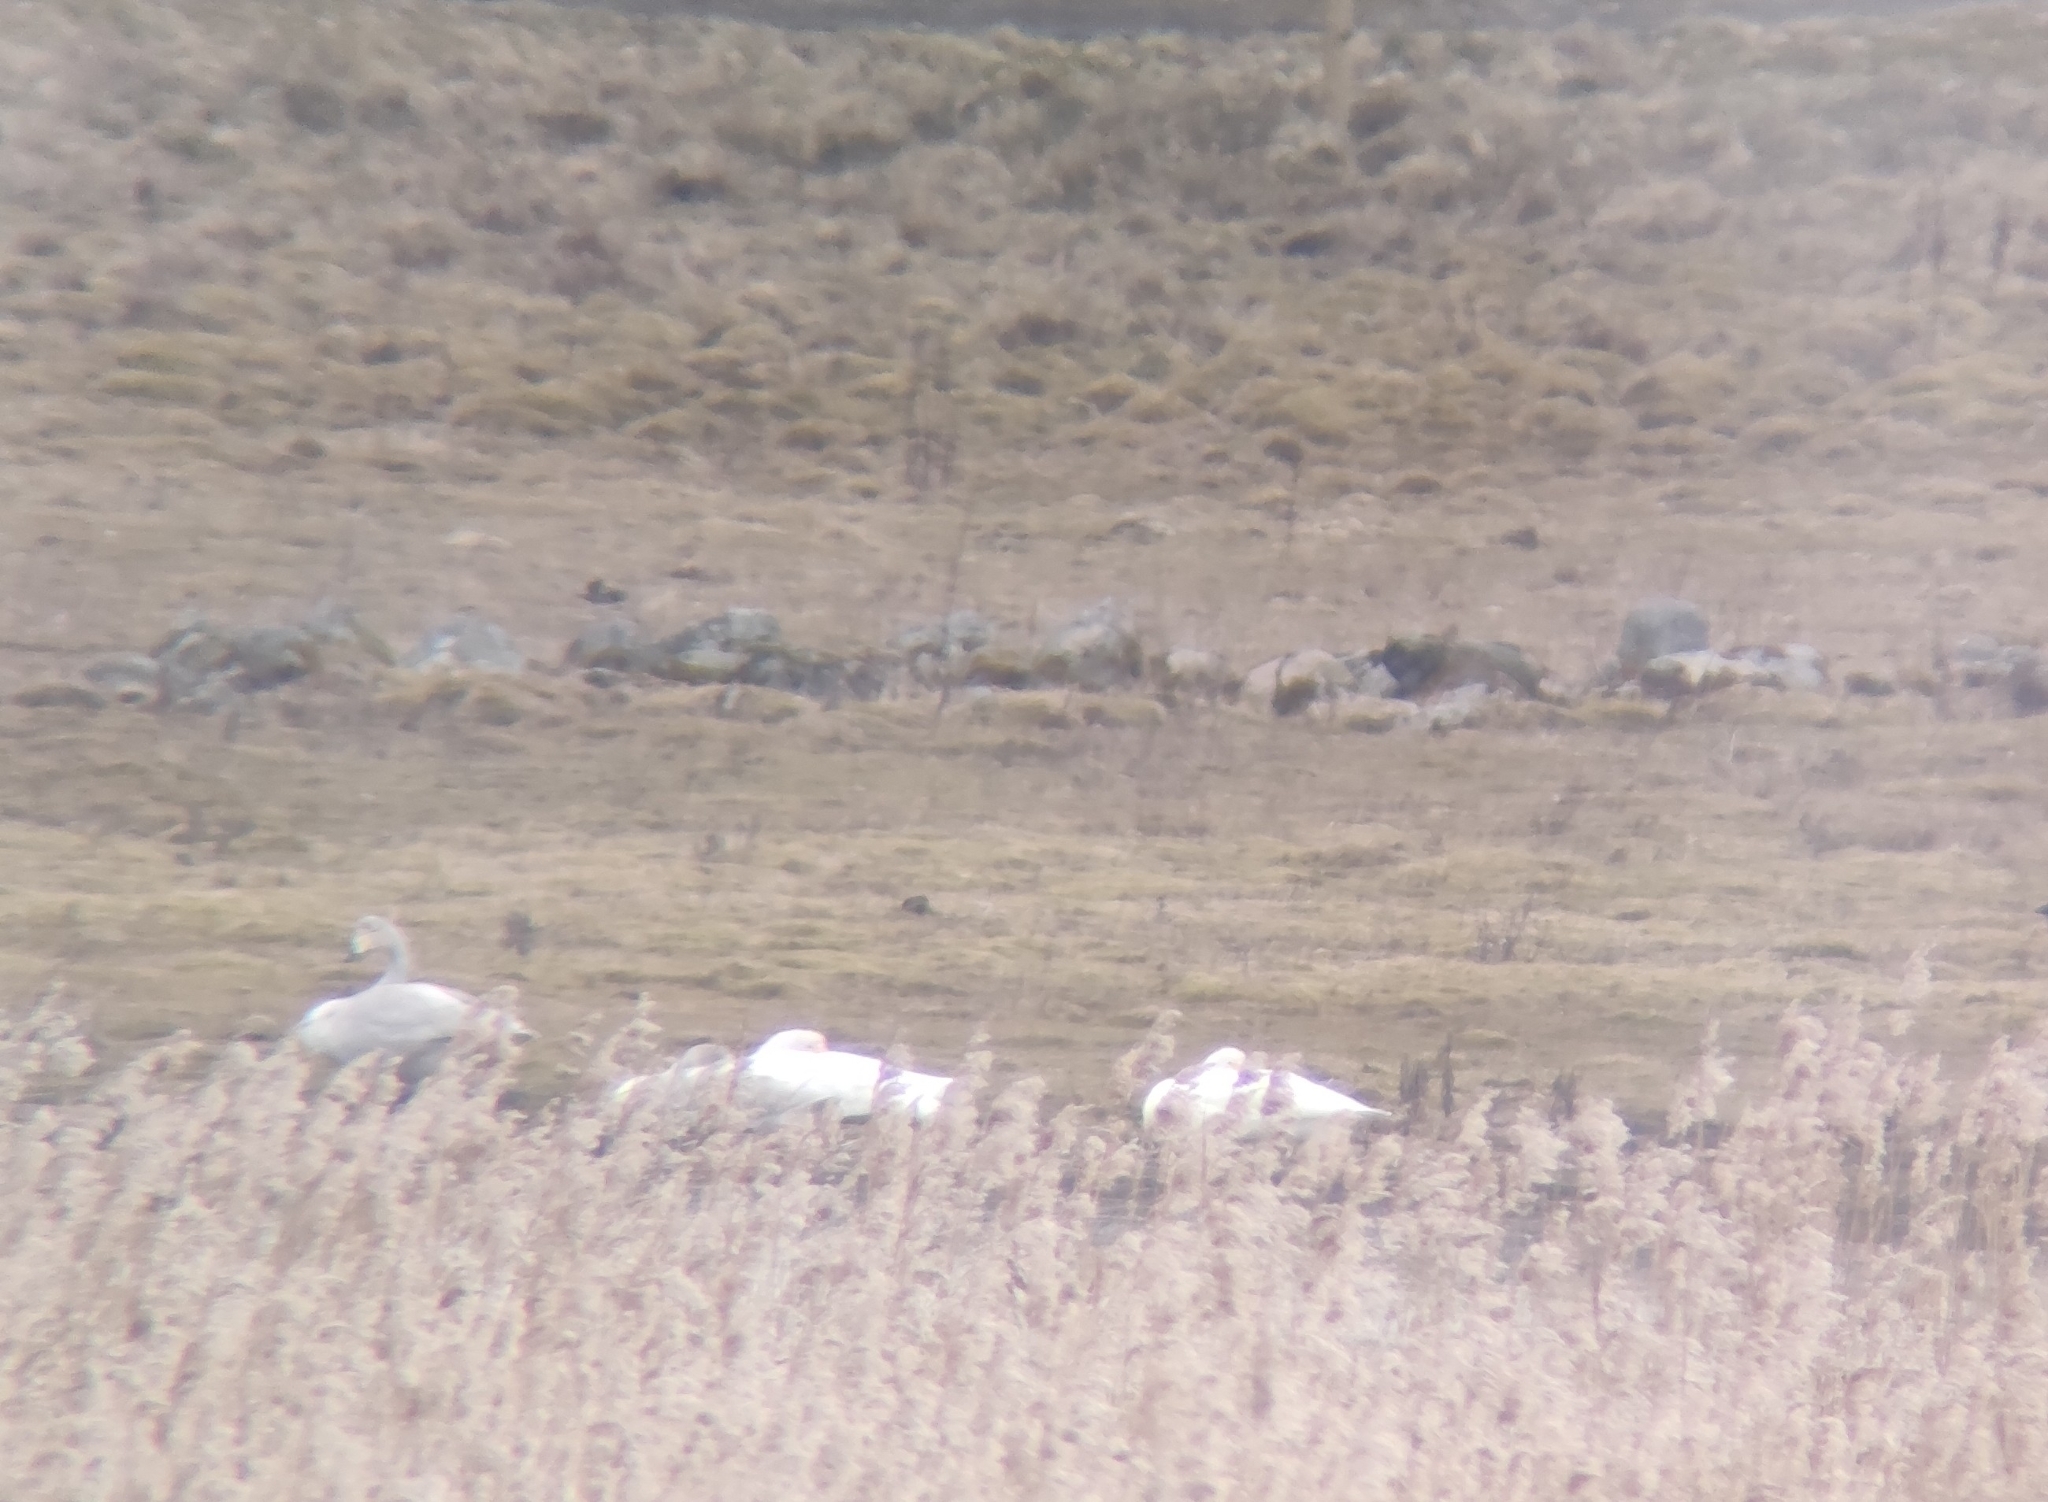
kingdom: Animalia
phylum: Chordata
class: Aves
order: Anseriformes
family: Anatidae
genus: Cygnus
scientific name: Cygnus cygnus
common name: Whooper swan
